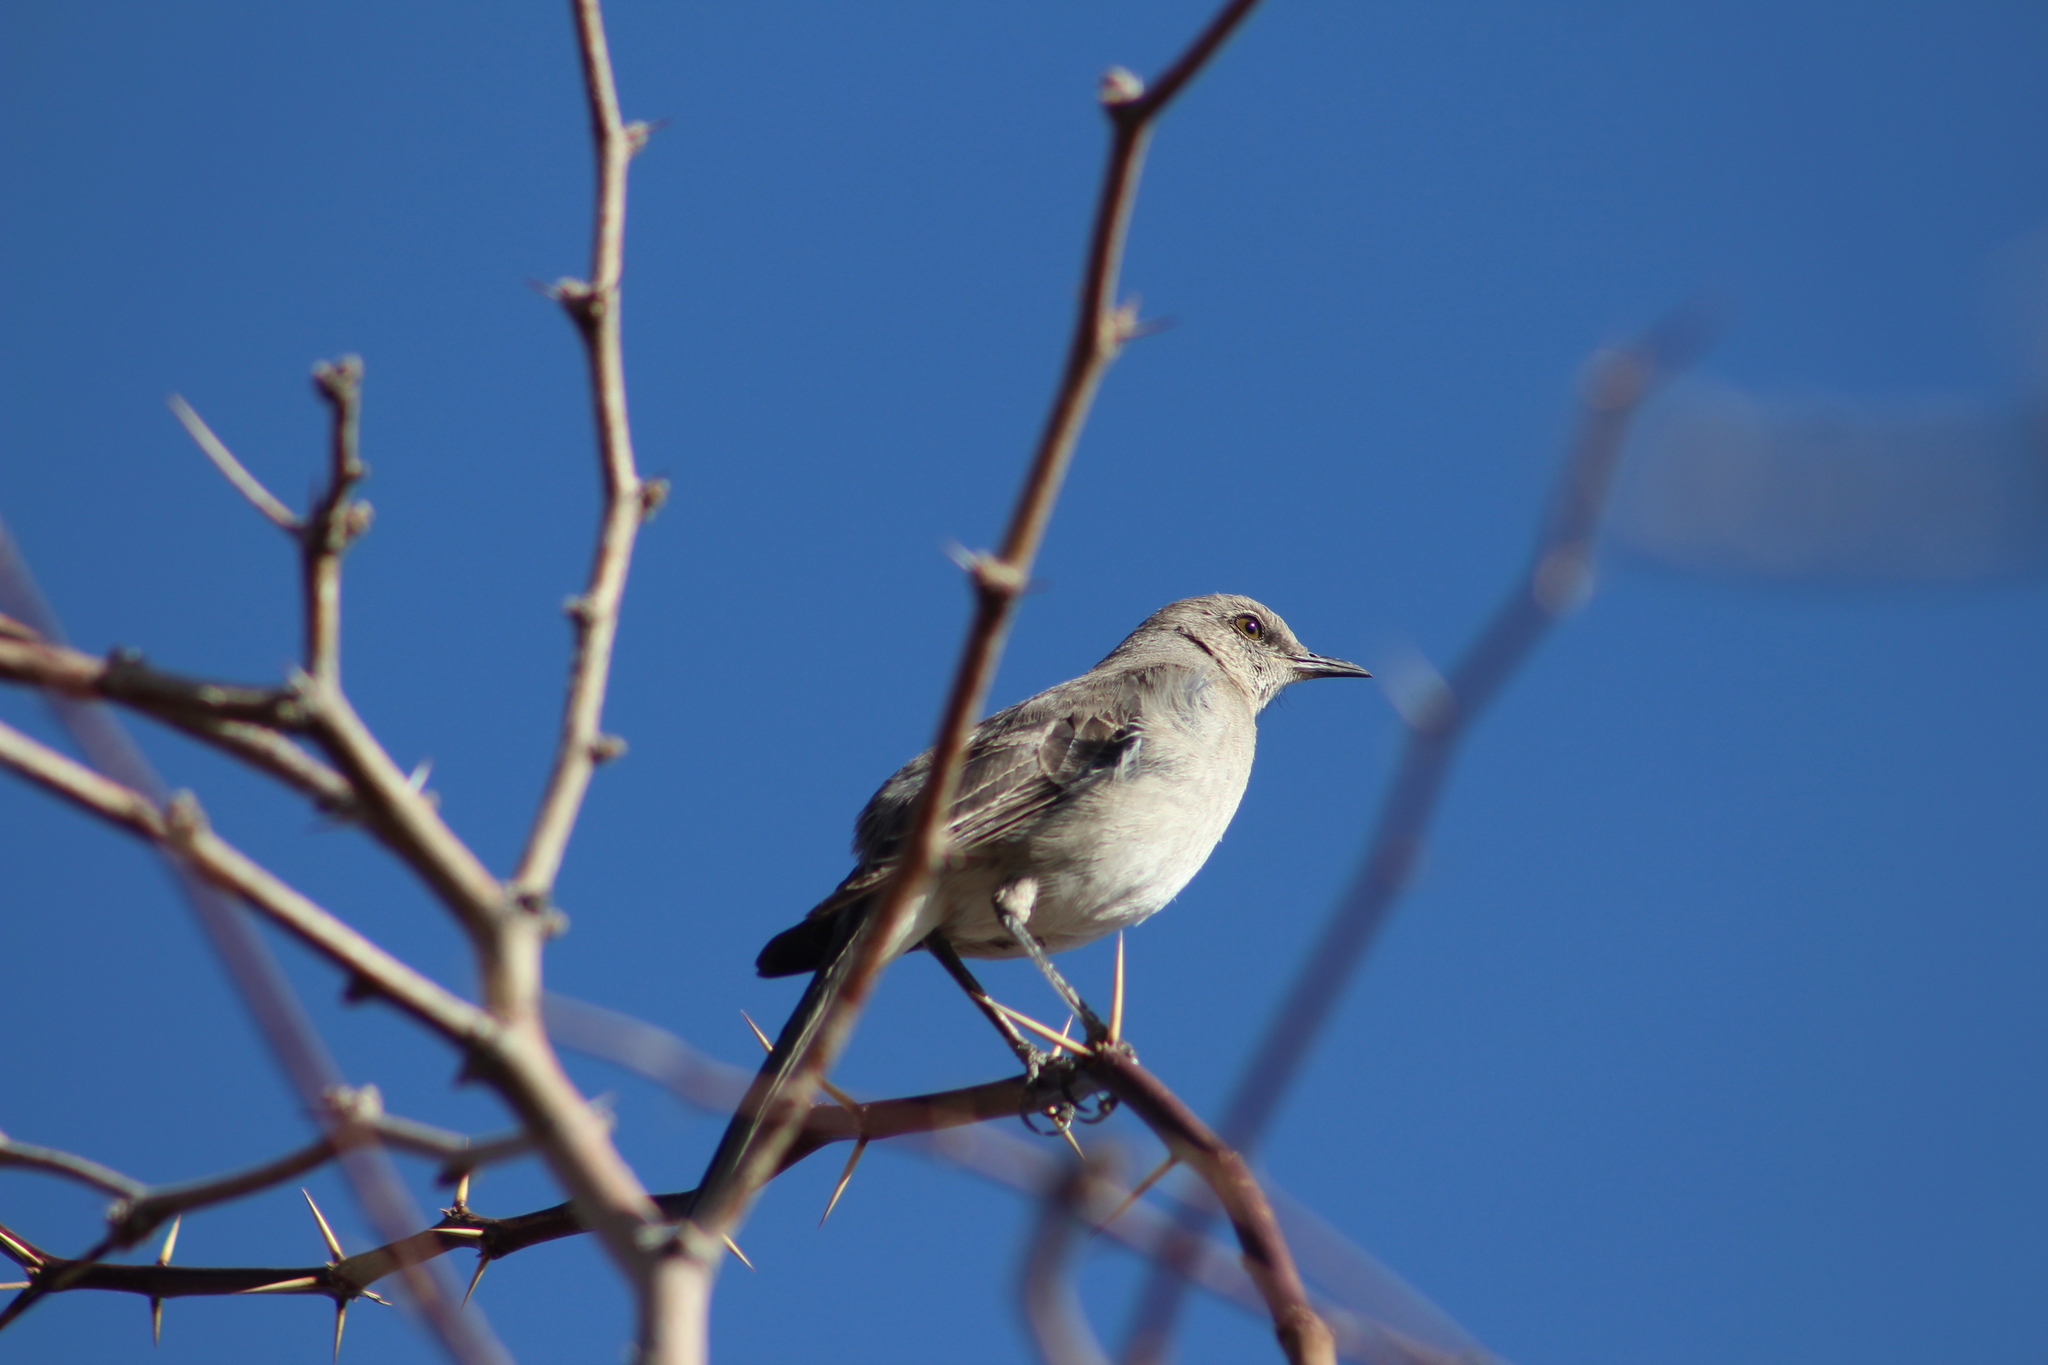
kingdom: Animalia
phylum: Chordata
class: Aves
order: Passeriformes
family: Mimidae
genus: Mimus
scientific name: Mimus polyglottos
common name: Northern mockingbird
